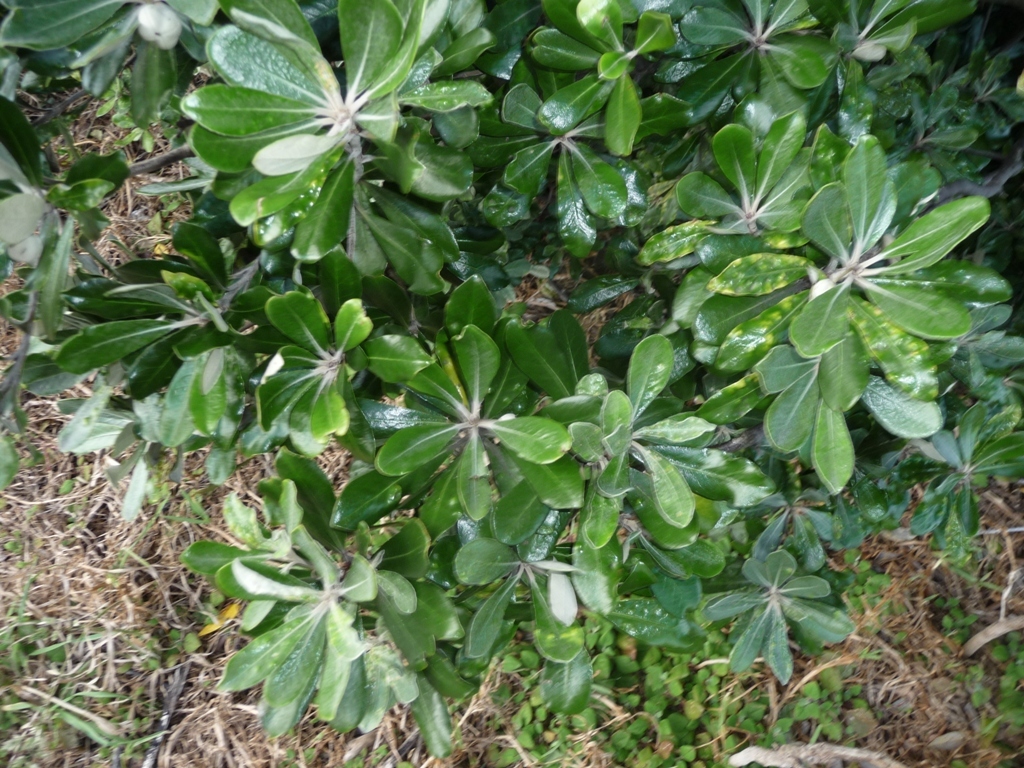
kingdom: Plantae
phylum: Tracheophyta
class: Magnoliopsida
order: Apiales
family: Pittosporaceae
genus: Pittosporum
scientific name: Pittosporum crassifolium
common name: Karo
